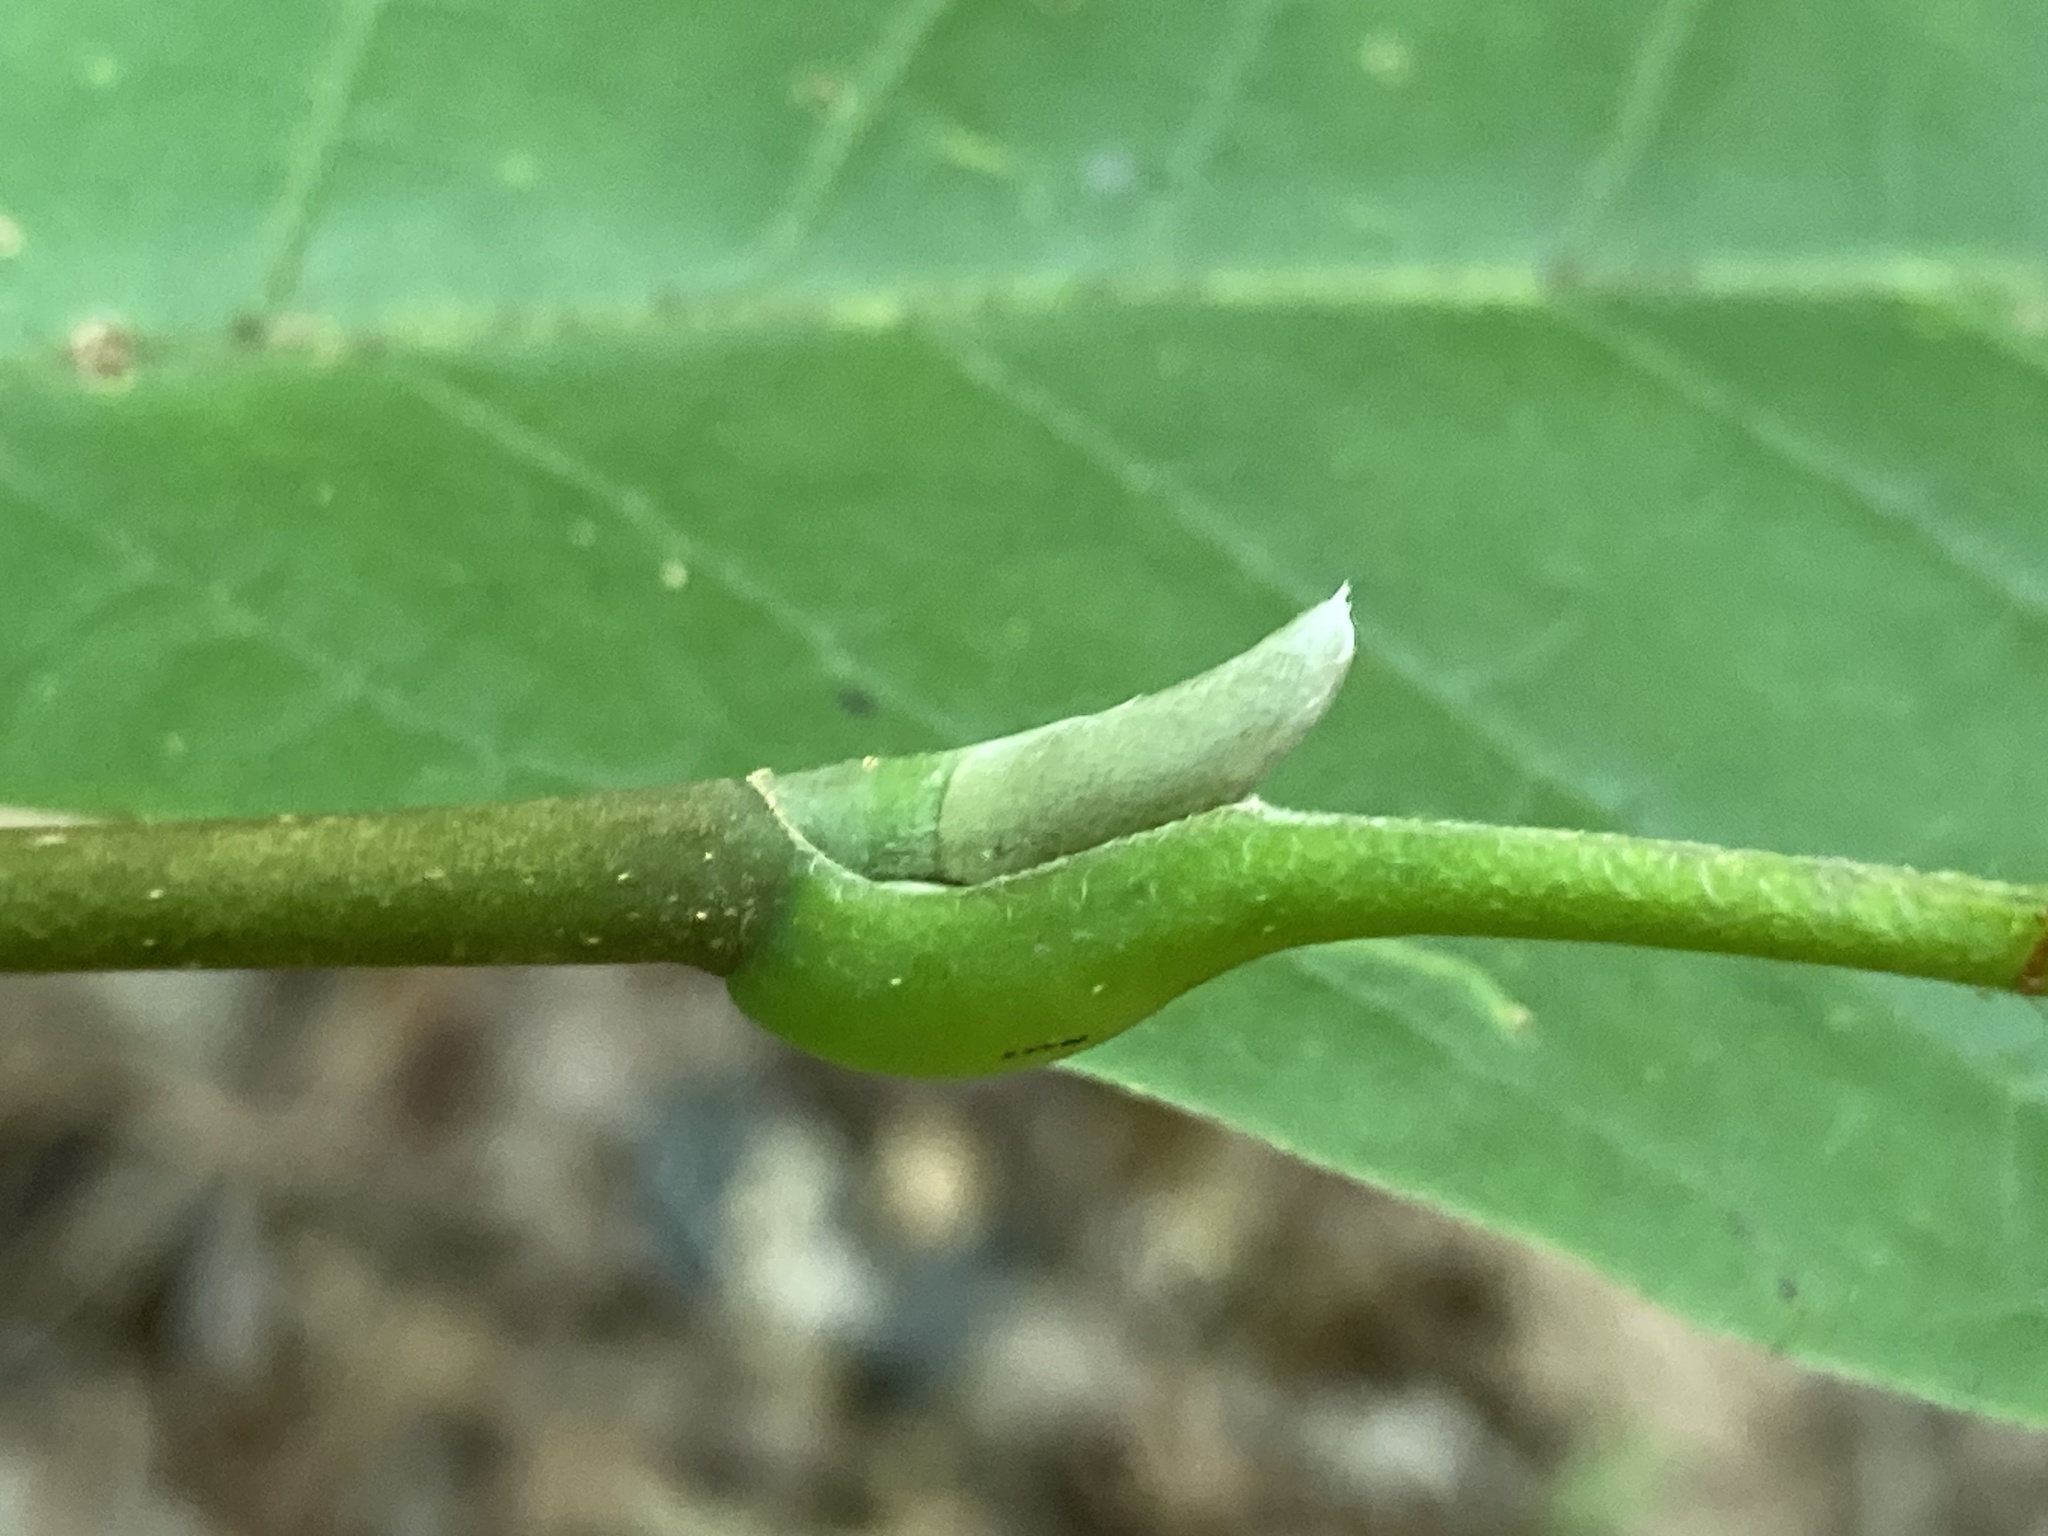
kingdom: Plantae
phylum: Tracheophyta
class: Magnoliopsida
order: Magnoliales
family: Magnoliaceae
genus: Magnolia
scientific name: Magnolia acuminata
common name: Cucumber magnolia
